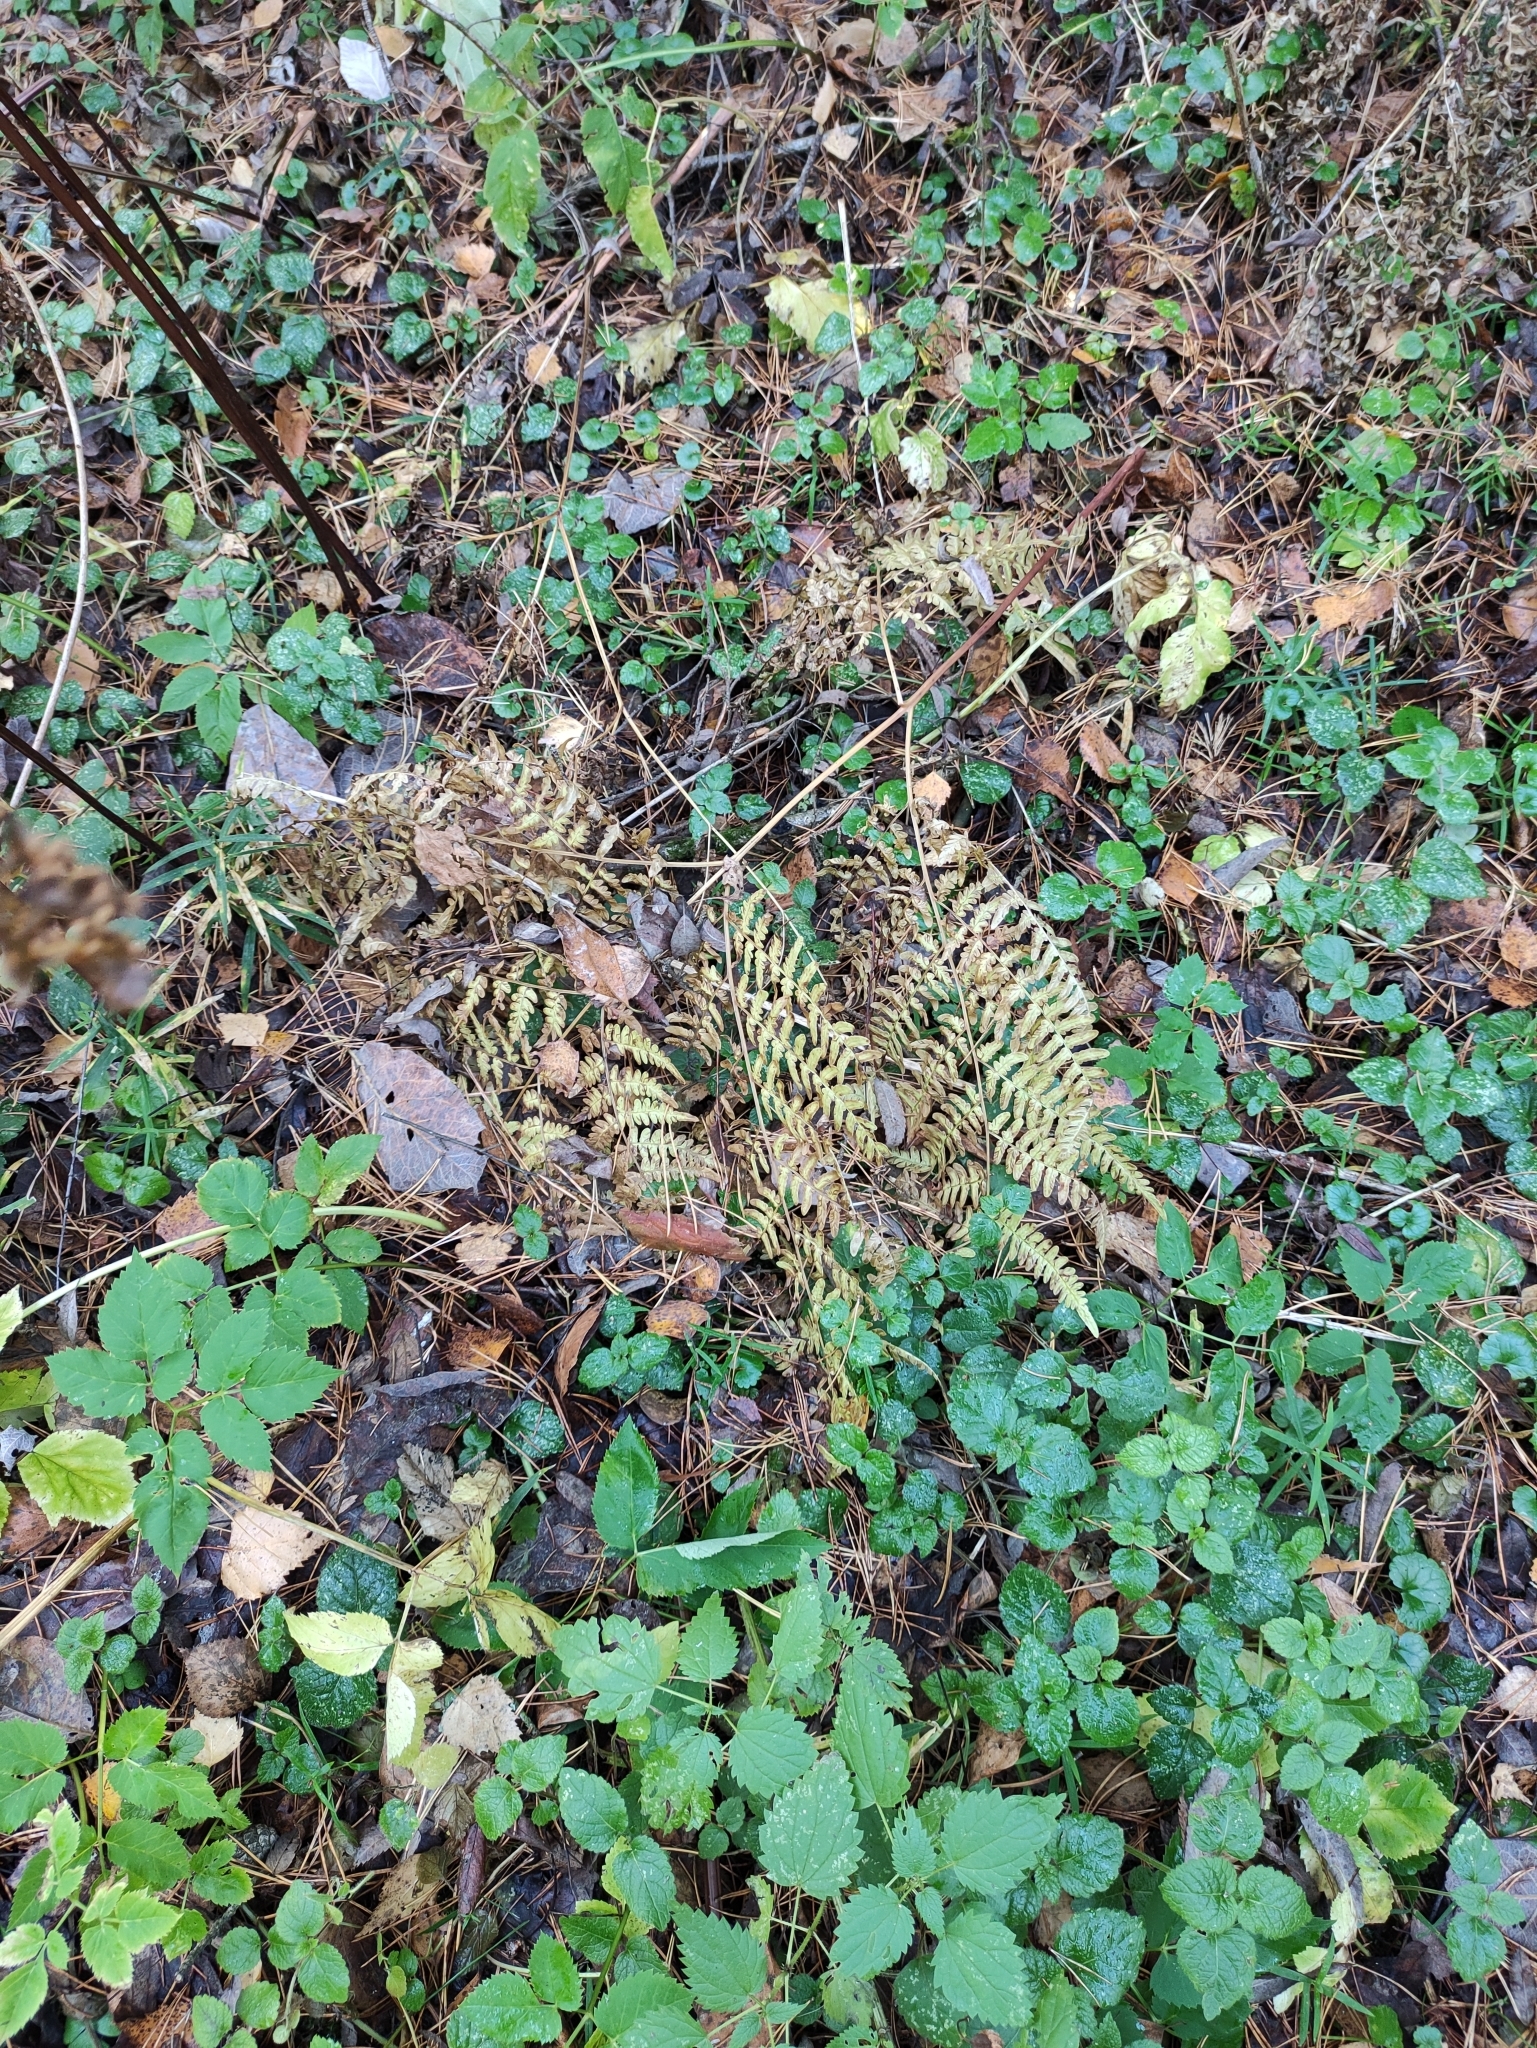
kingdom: Plantae
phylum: Tracheophyta
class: Polypodiopsida
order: Polypodiales
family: Dennstaedtiaceae
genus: Pteridium
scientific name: Pteridium aquilinum
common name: Bracken
